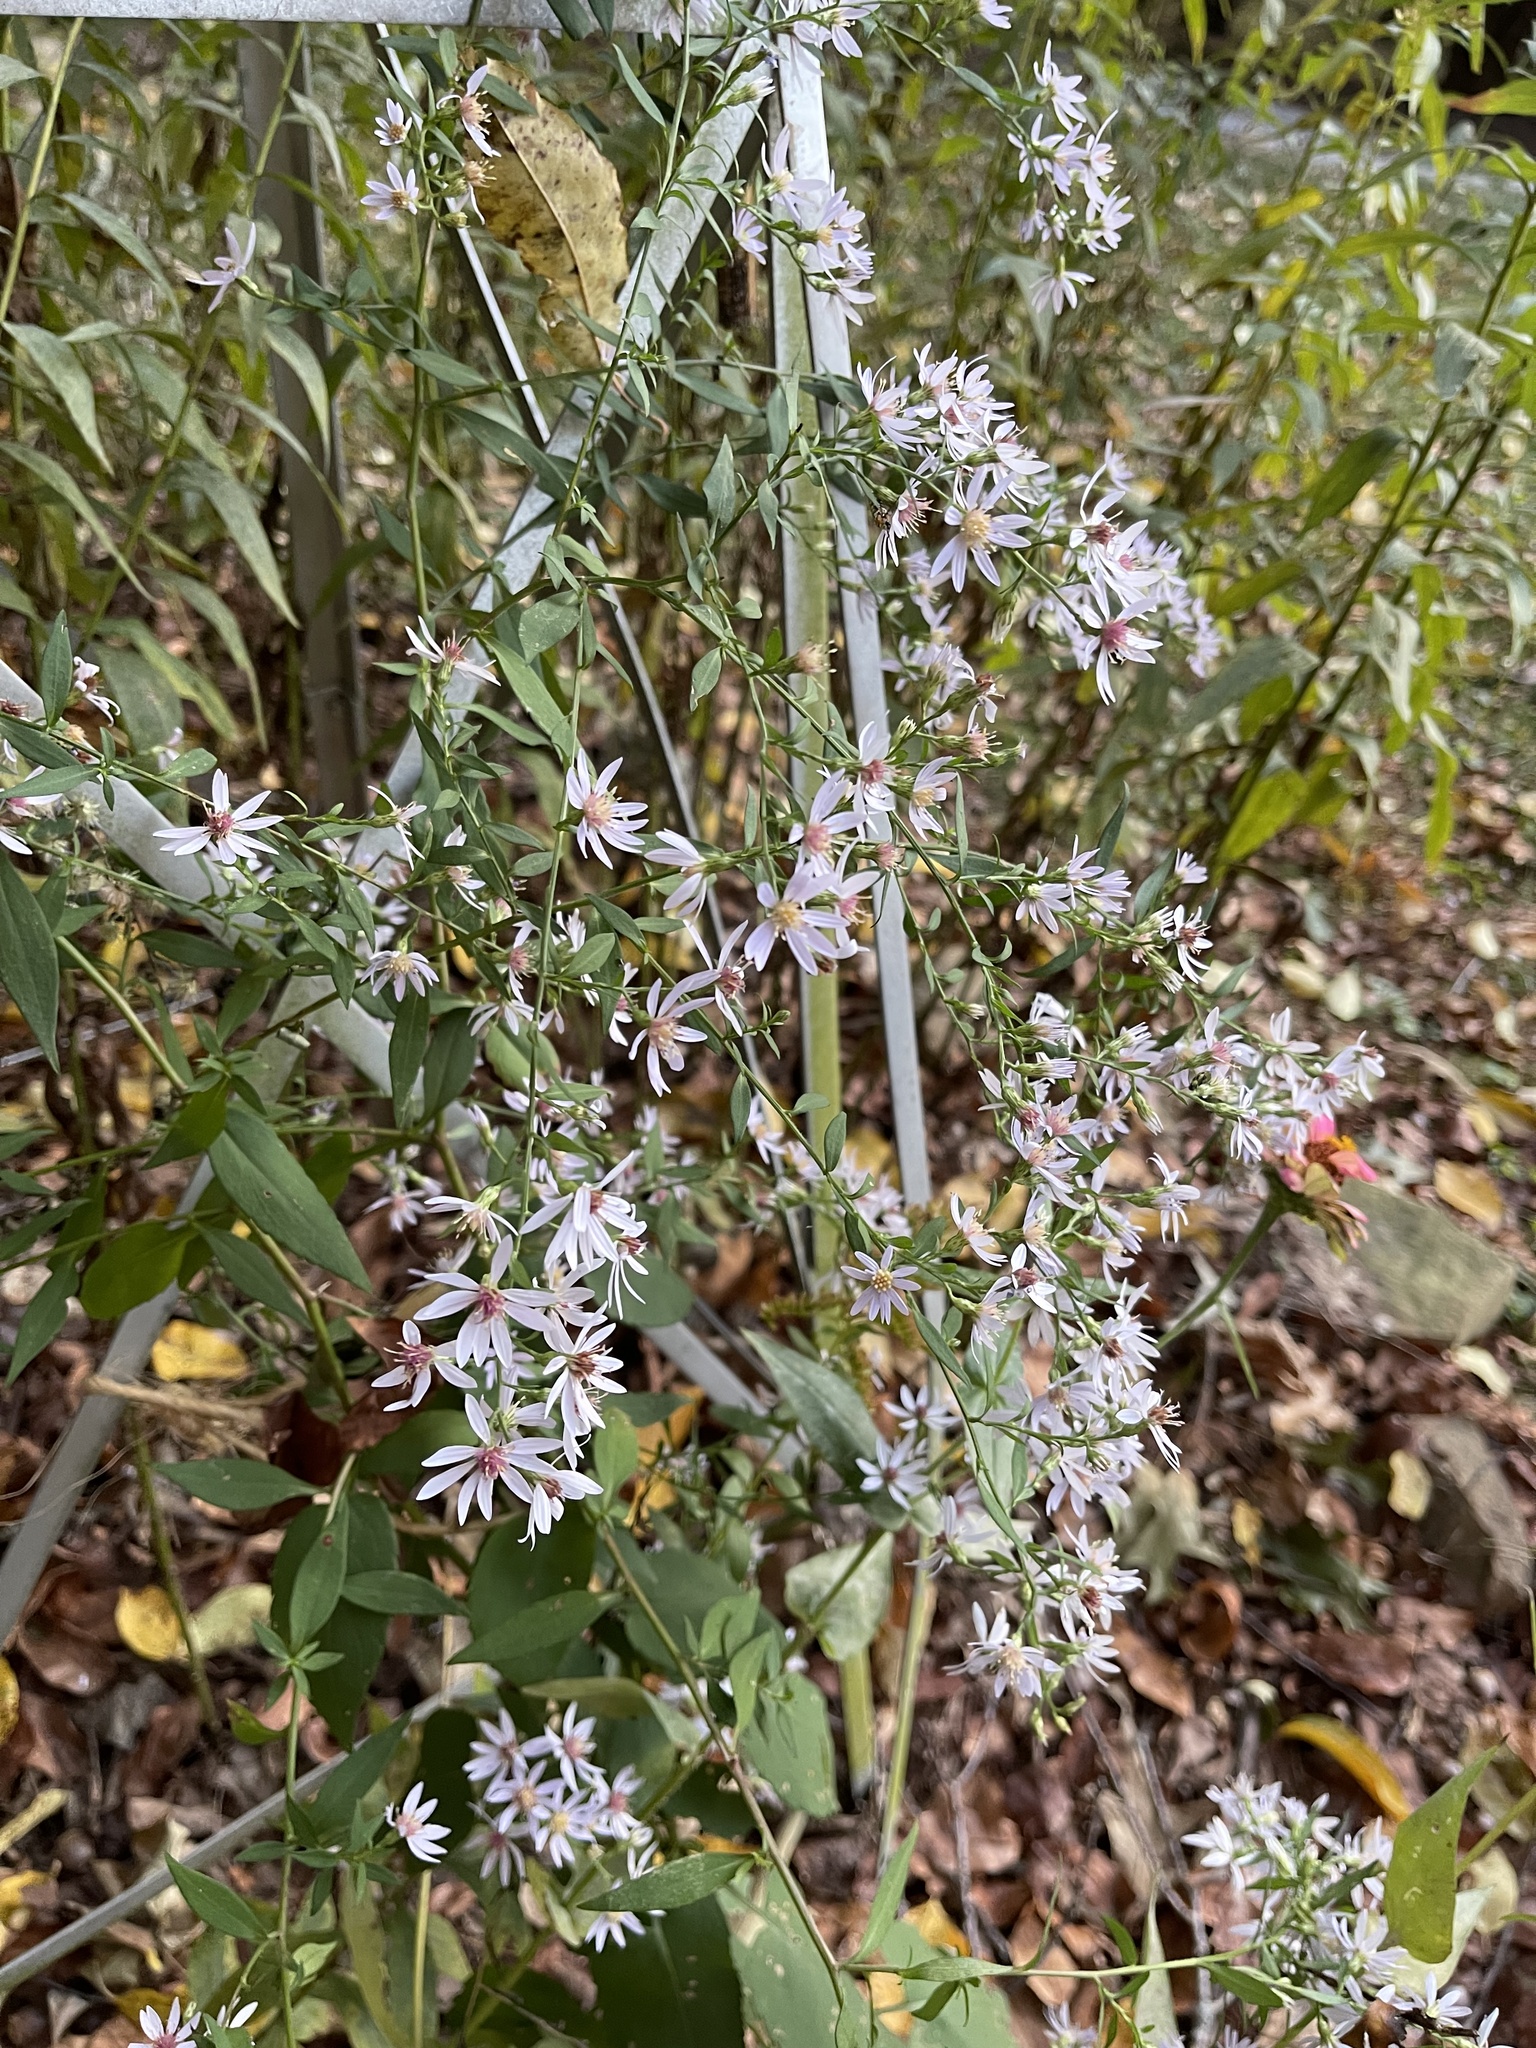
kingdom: Plantae
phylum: Tracheophyta
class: Magnoliopsida
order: Asterales
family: Asteraceae
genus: Symphyotrichum
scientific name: Symphyotrichum cordifolium
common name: Beeweed
